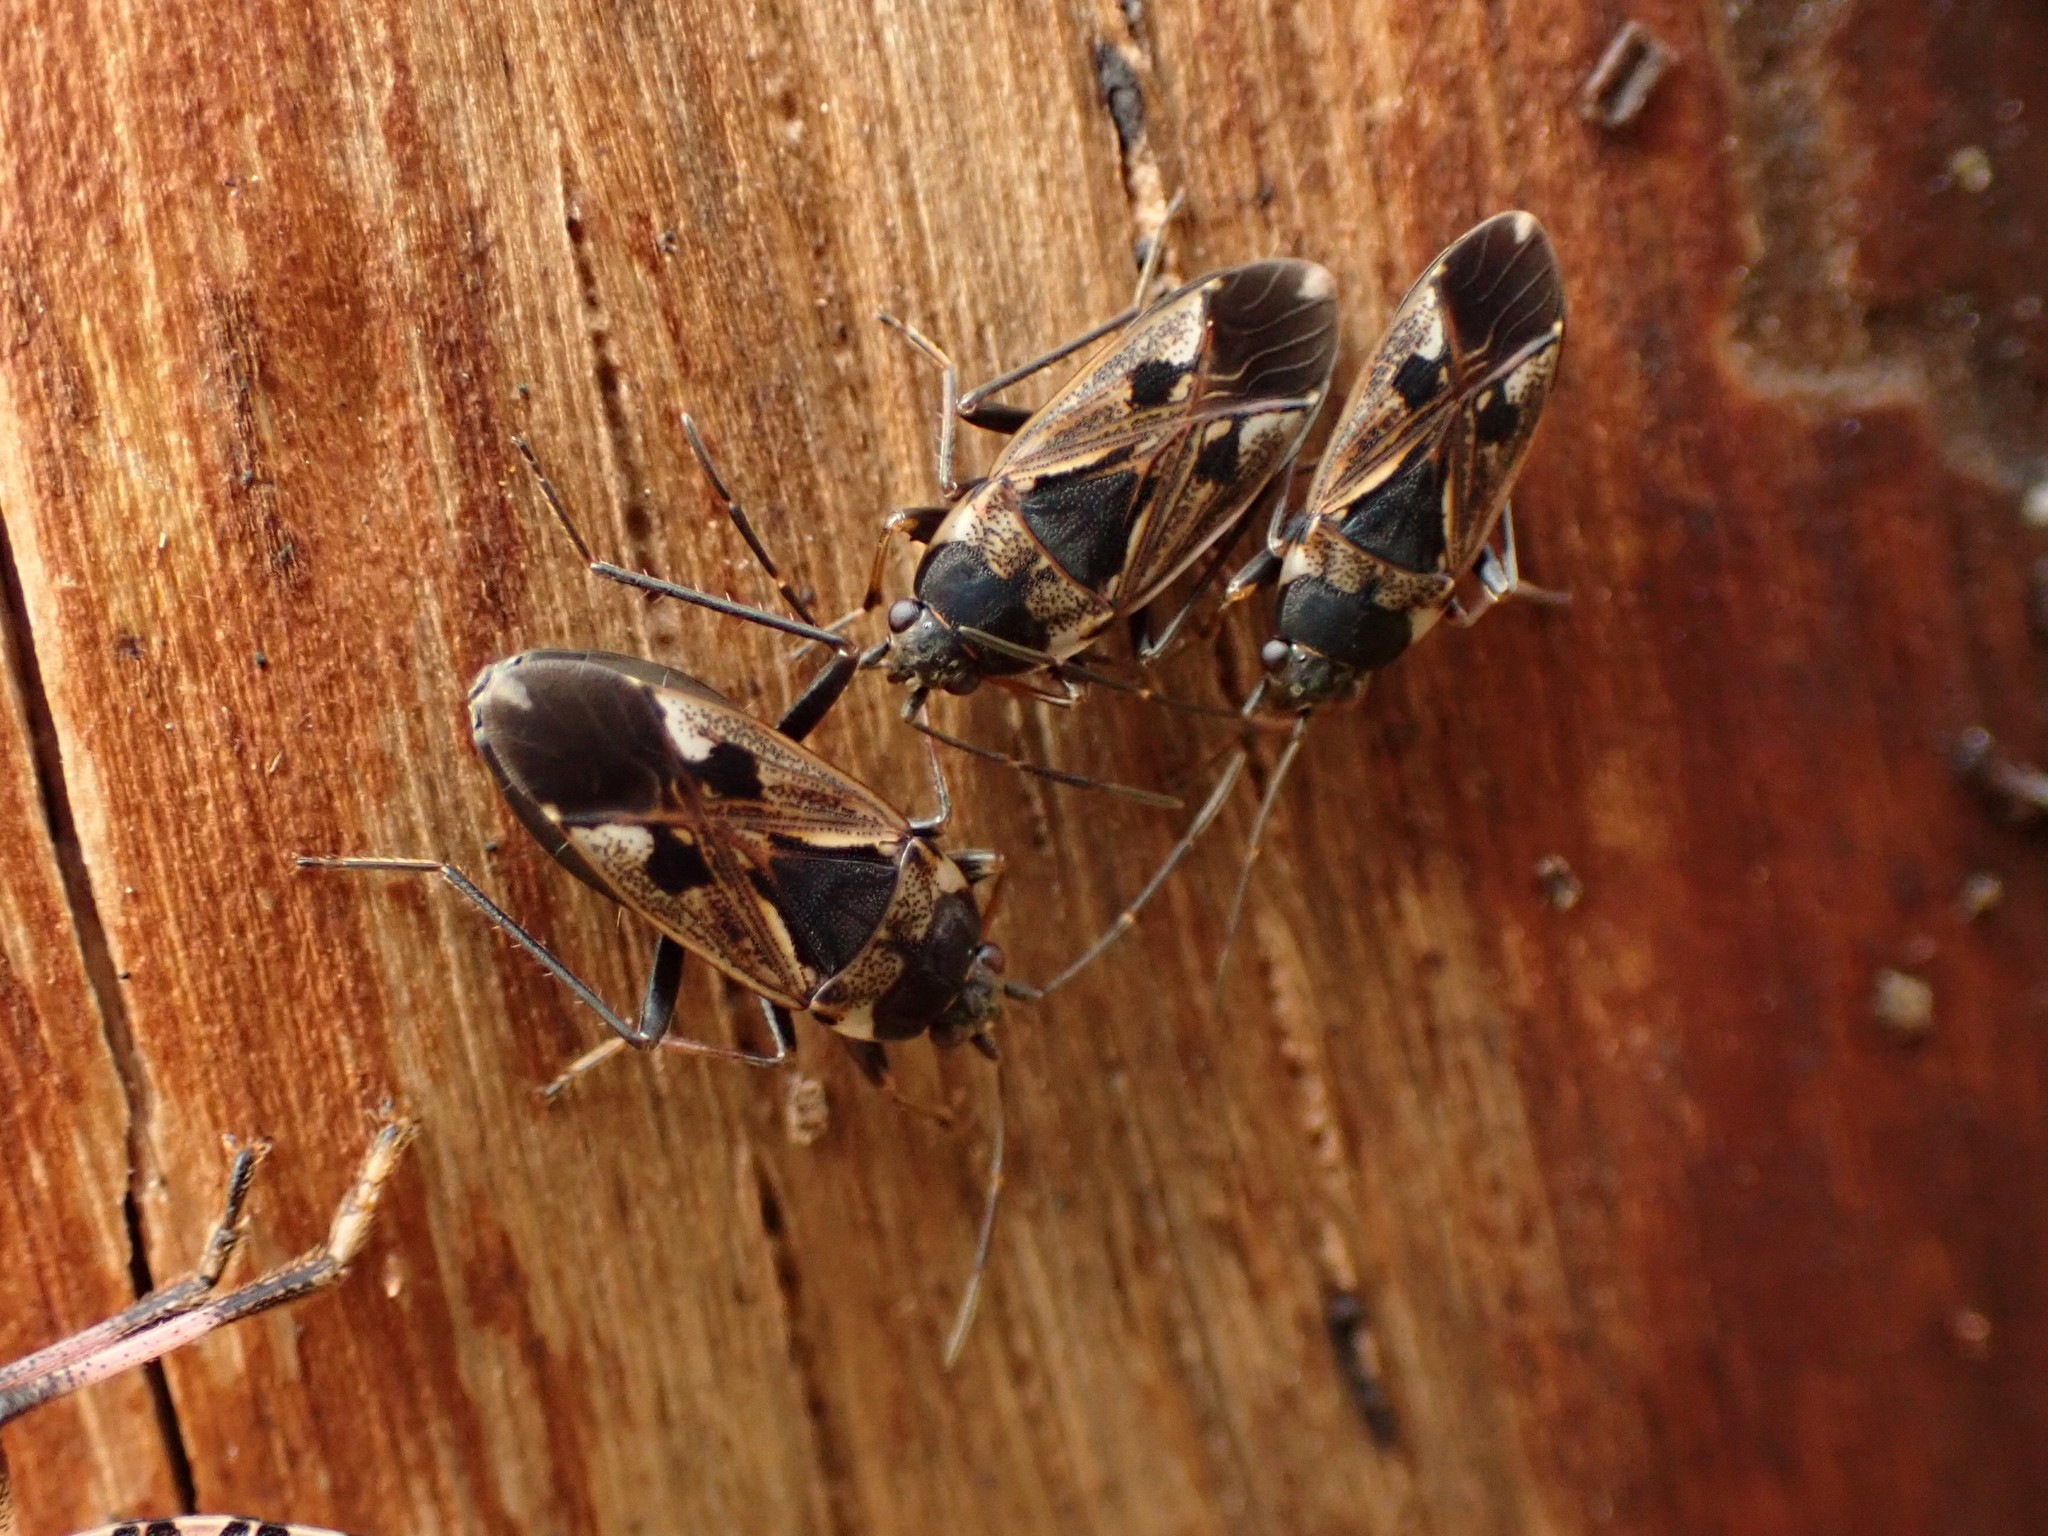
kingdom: Animalia
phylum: Arthropoda
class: Insecta
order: Hemiptera
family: Rhyparochromidae
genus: Rhyparochromus
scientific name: Rhyparochromus vulgaris
